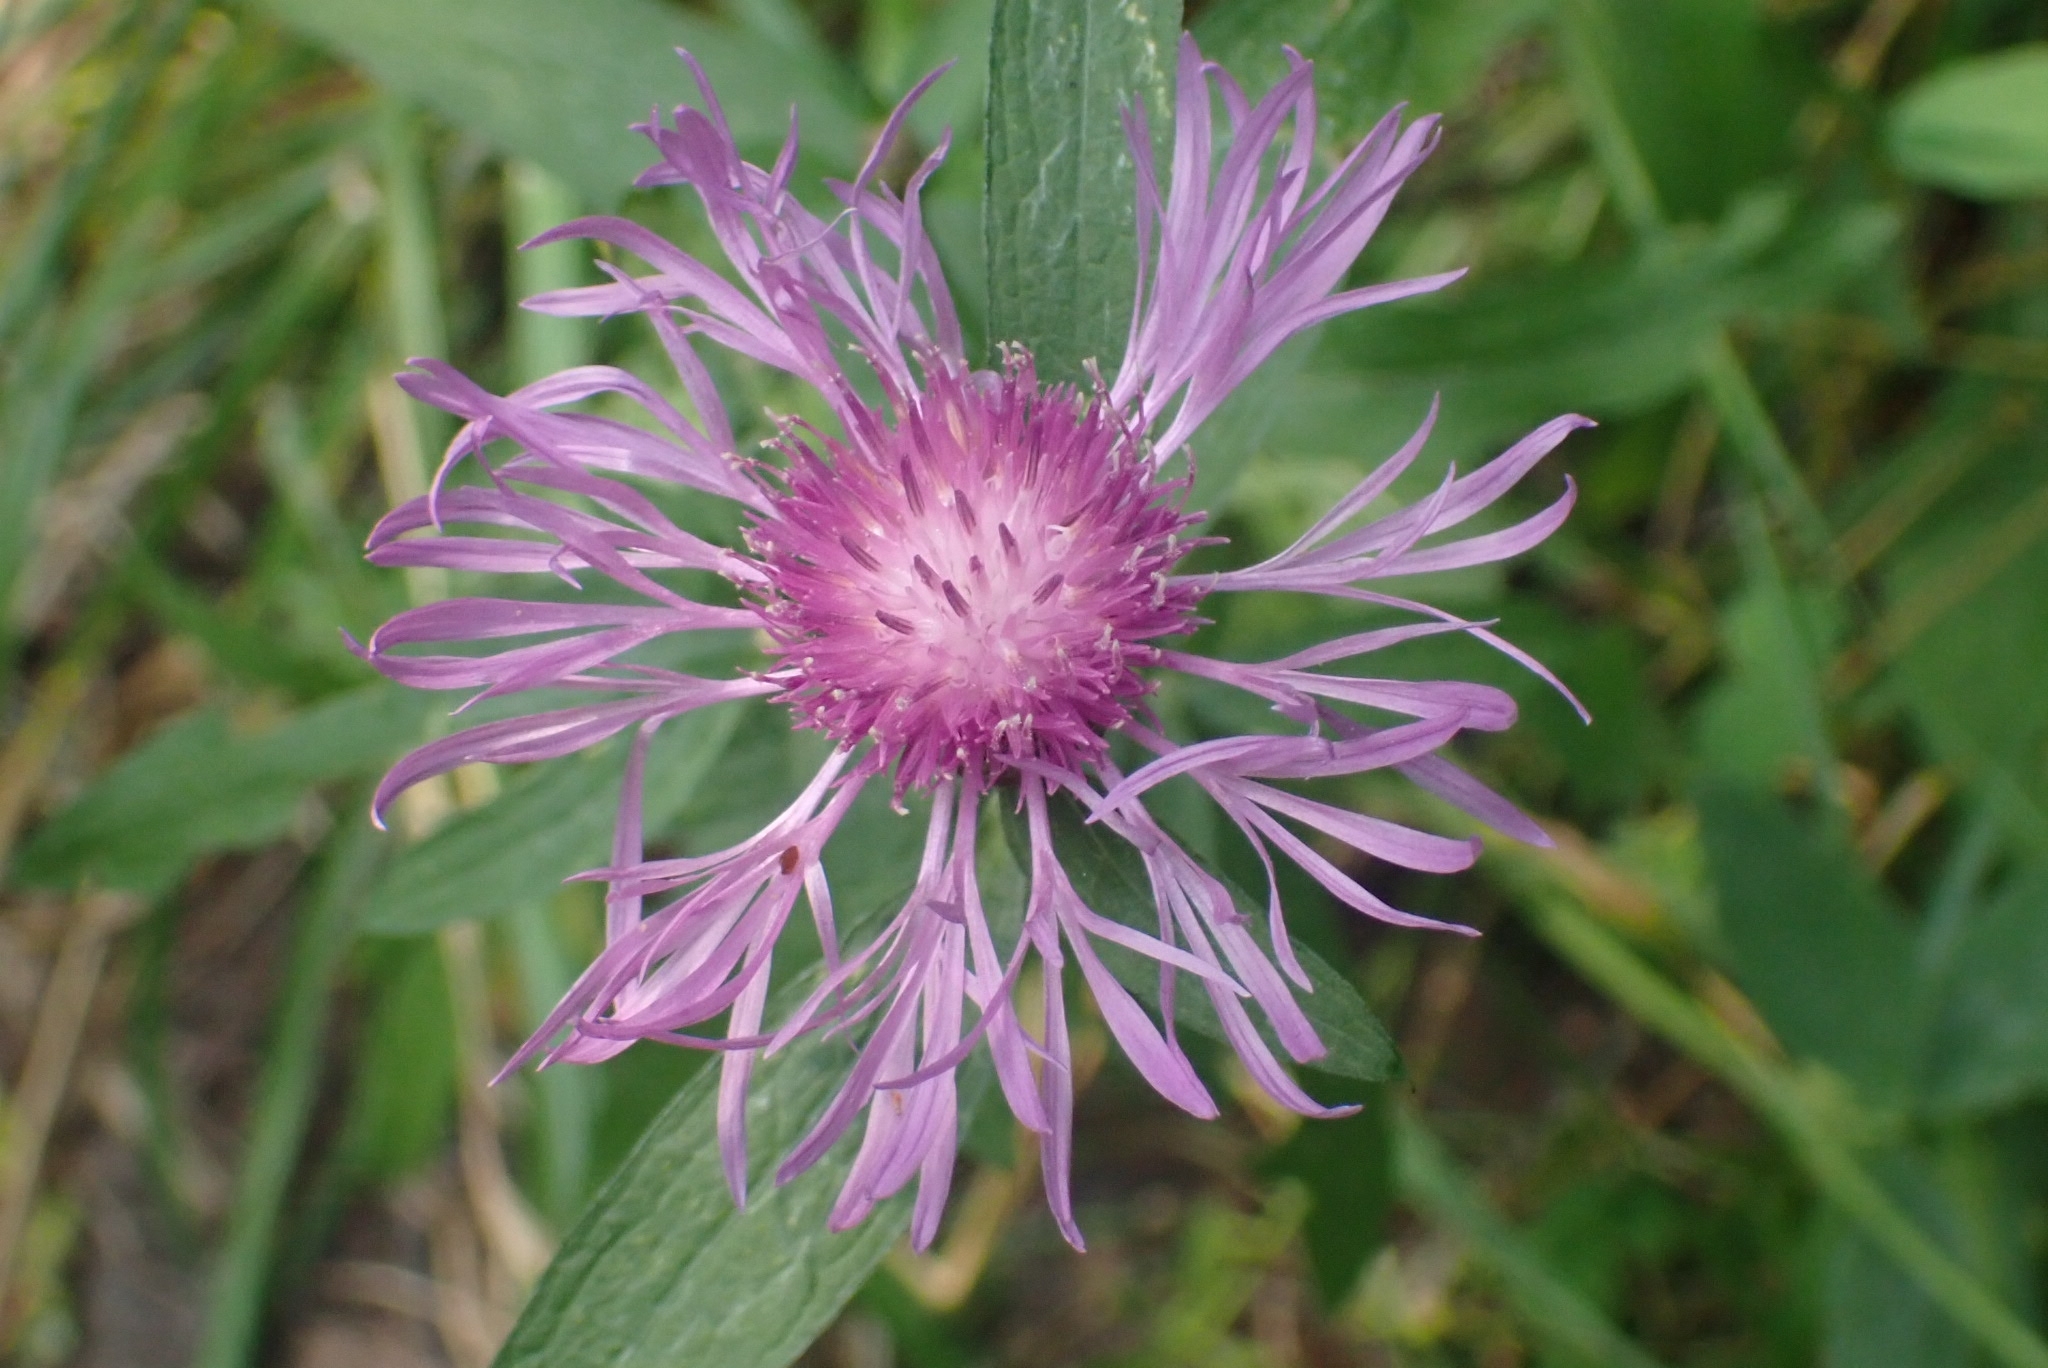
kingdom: Plantae
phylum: Tracheophyta
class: Magnoliopsida
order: Asterales
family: Asteraceae
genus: Centaurea
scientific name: Centaurea jacea
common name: Brown knapweed
